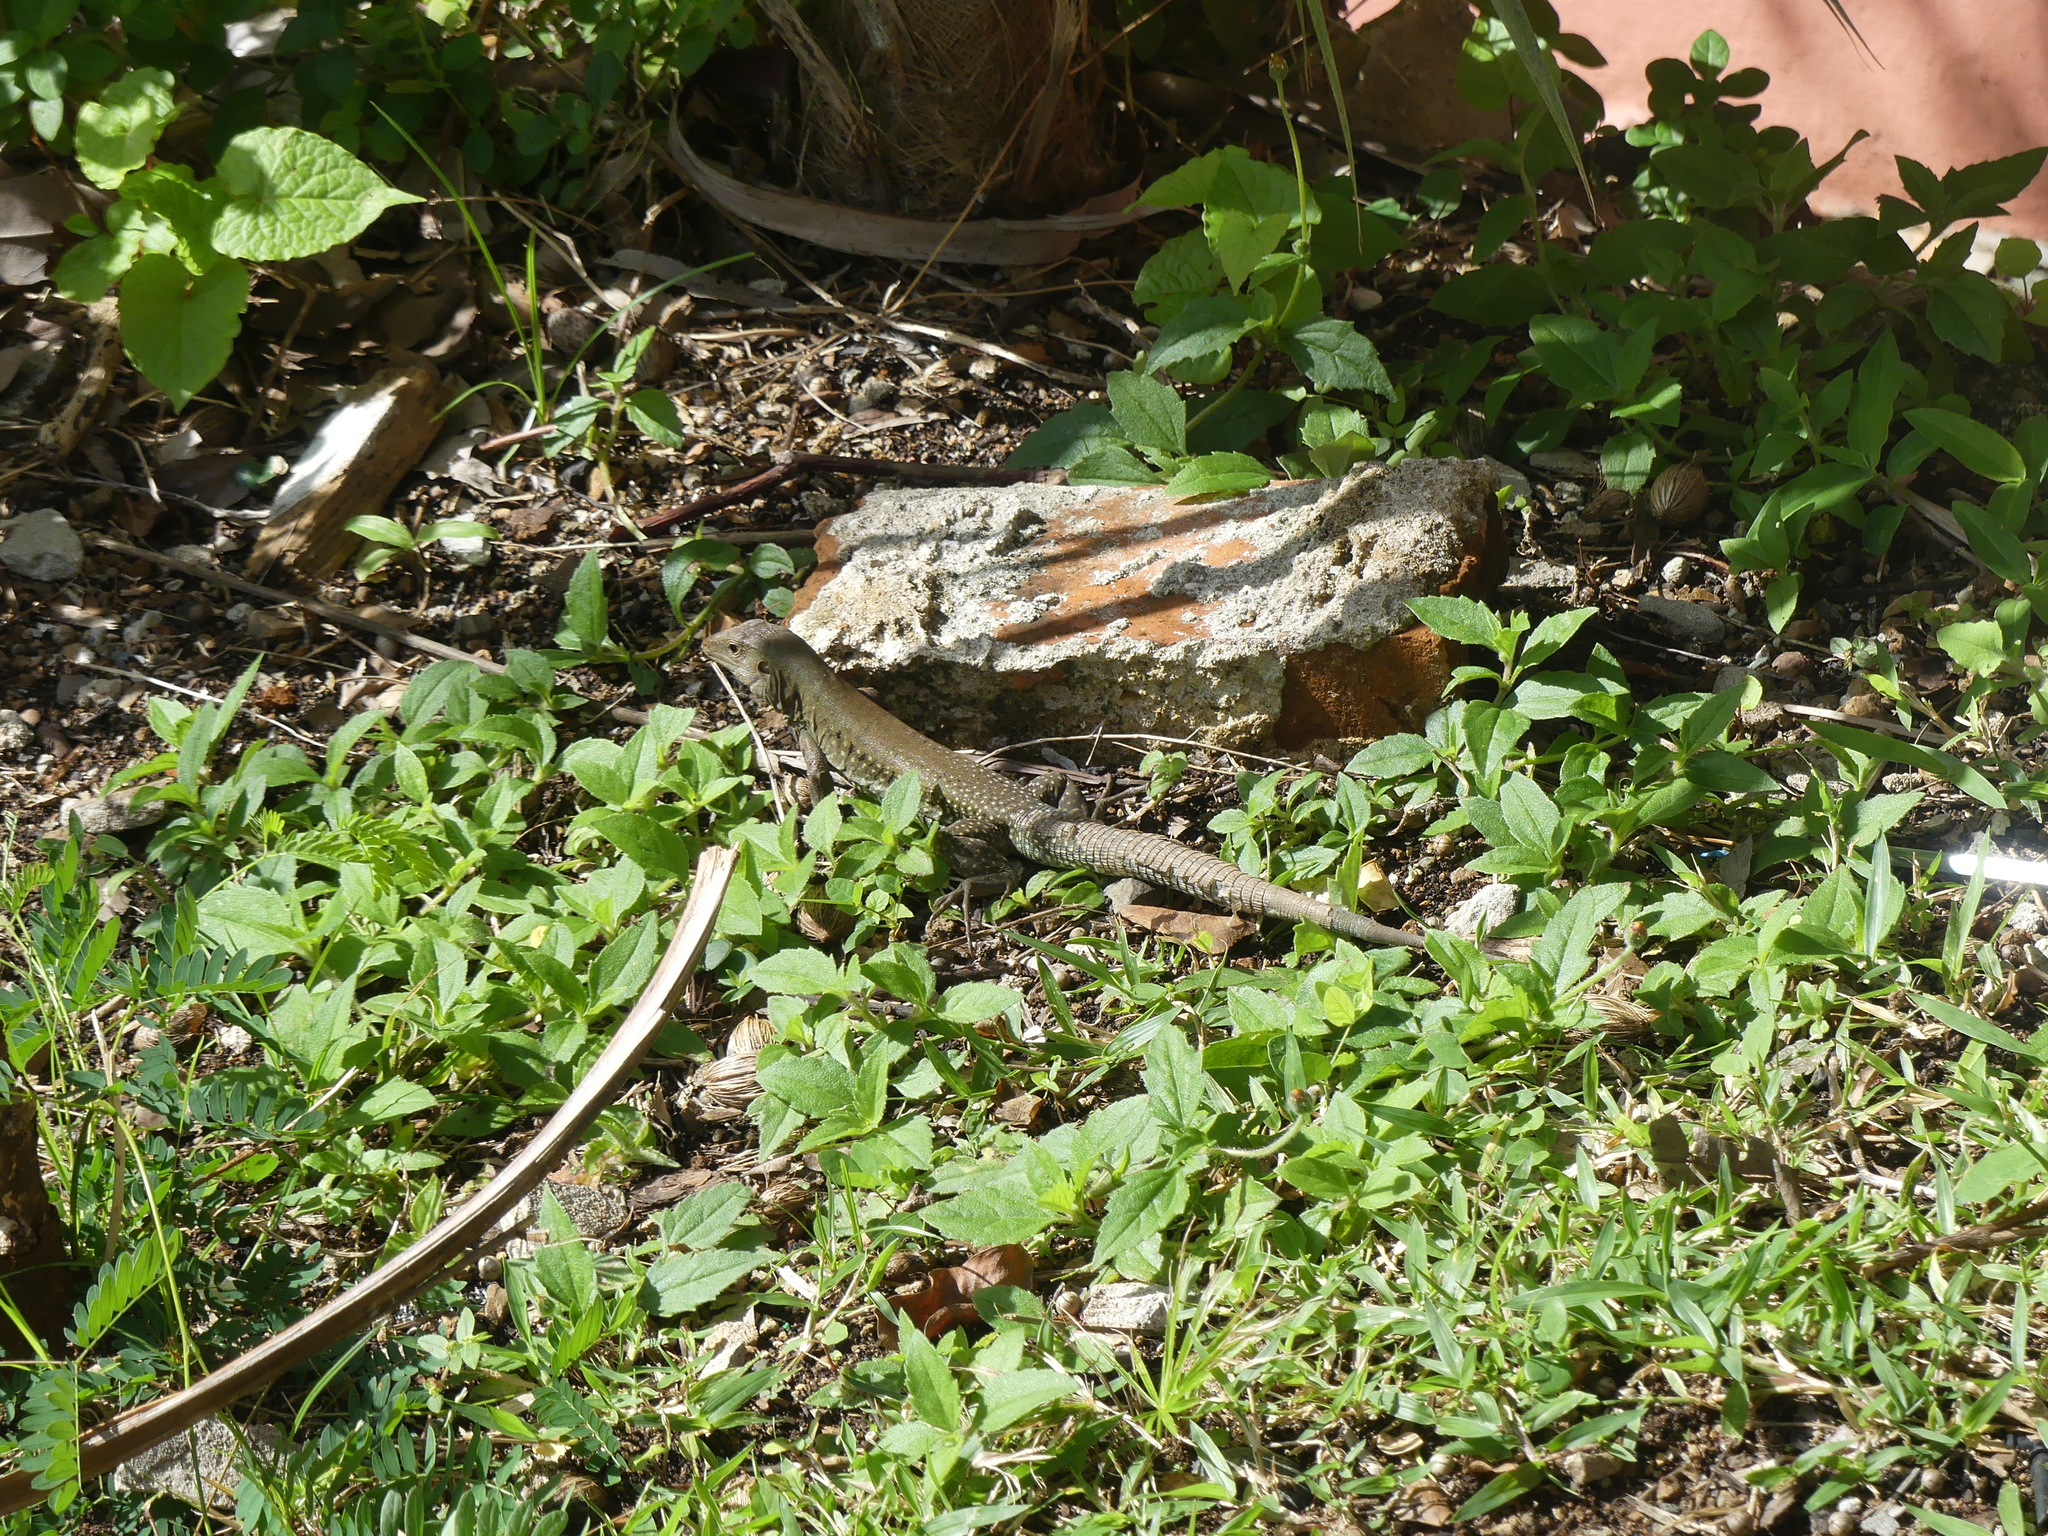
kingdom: Animalia
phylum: Chordata
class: Squamata
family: Teiidae
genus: Pholidoscelis
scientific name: Pholidoscelis exsul
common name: Common puerto rican ameiva
